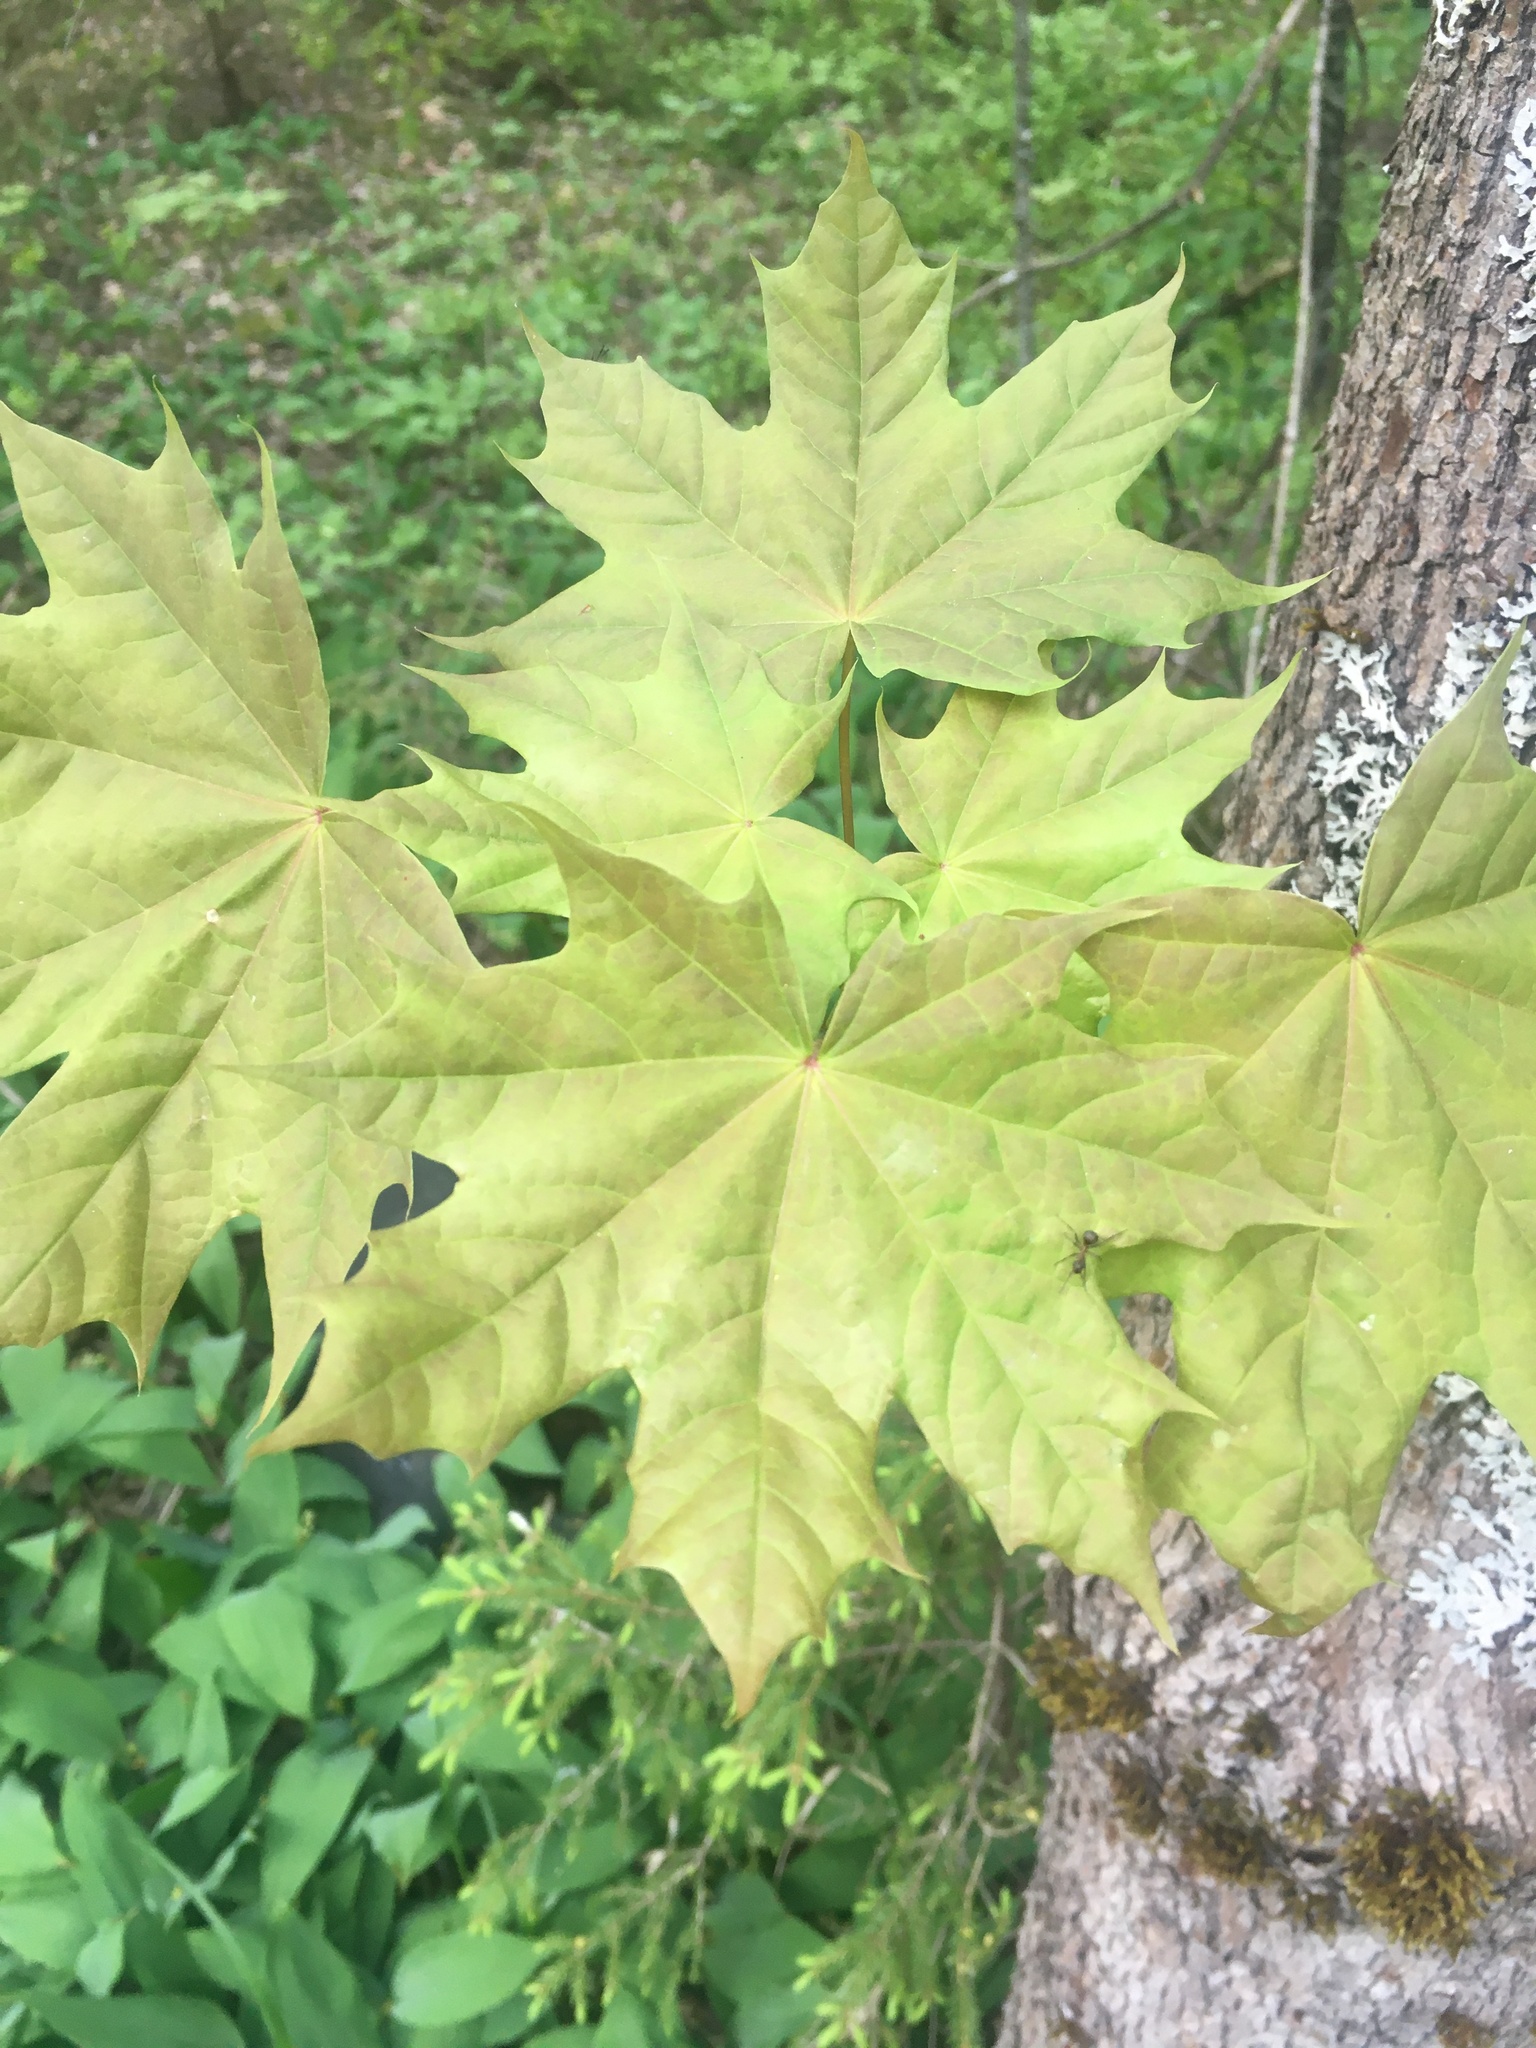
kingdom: Plantae
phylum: Tracheophyta
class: Magnoliopsida
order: Sapindales
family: Sapindaceae
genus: Acer
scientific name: Acer platanoides
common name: Norway maple
